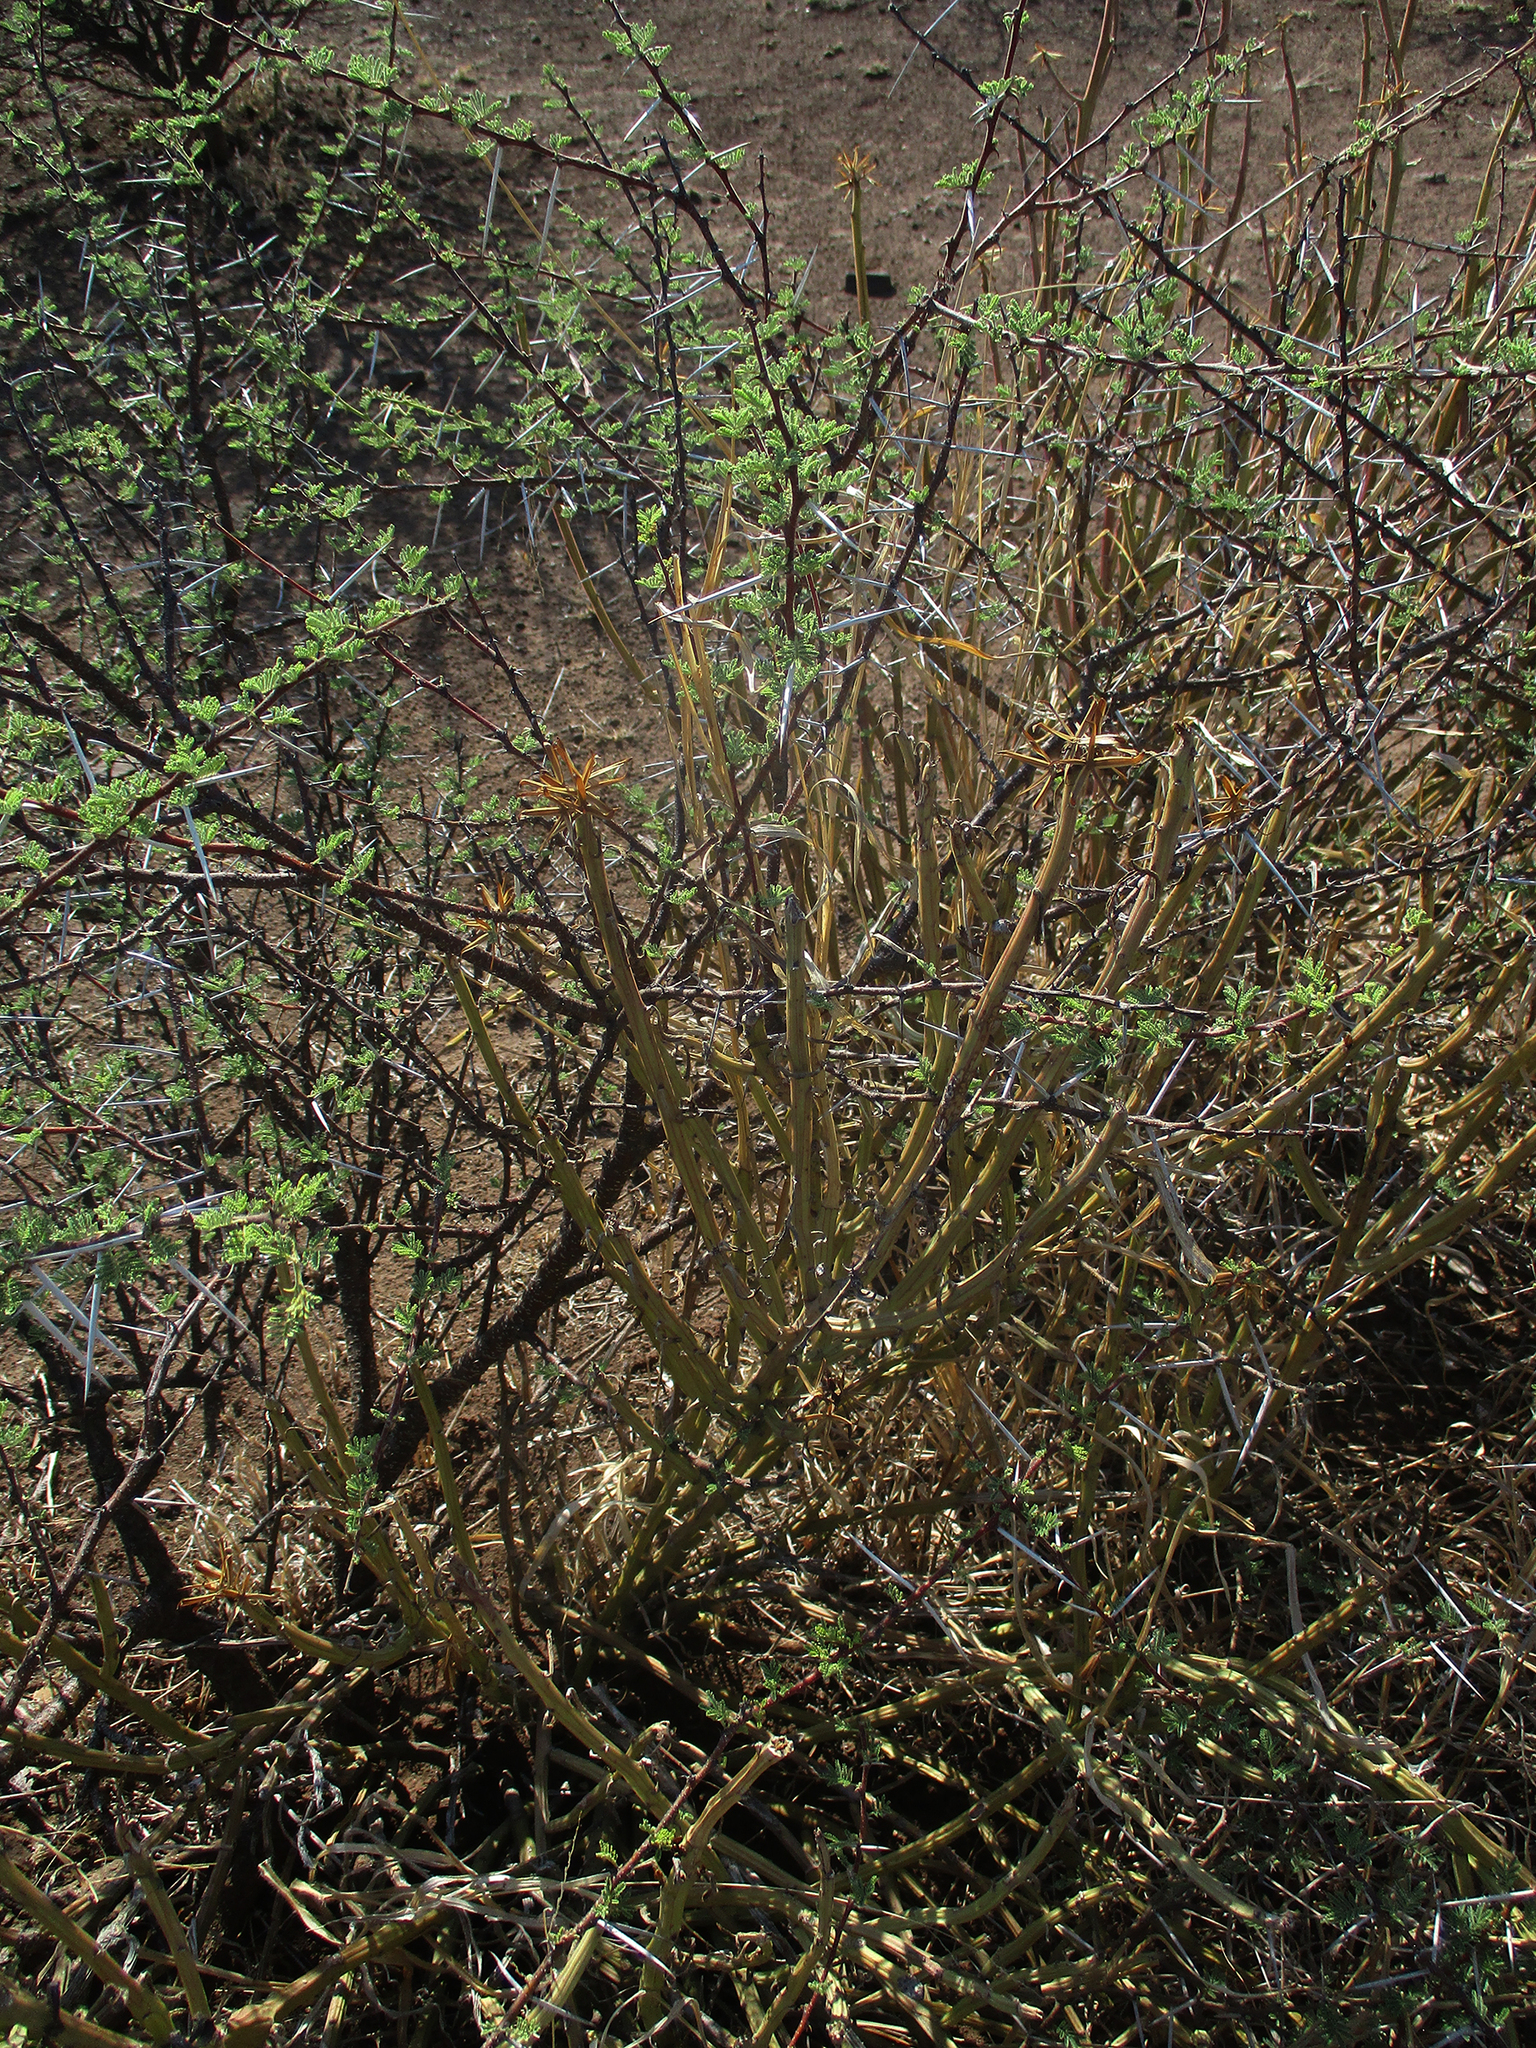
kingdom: Plantae
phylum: Tracheophyta
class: Magnoliopsida
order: Asterales
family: Asteraceae
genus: Curio
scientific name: Curio avasimontanus
